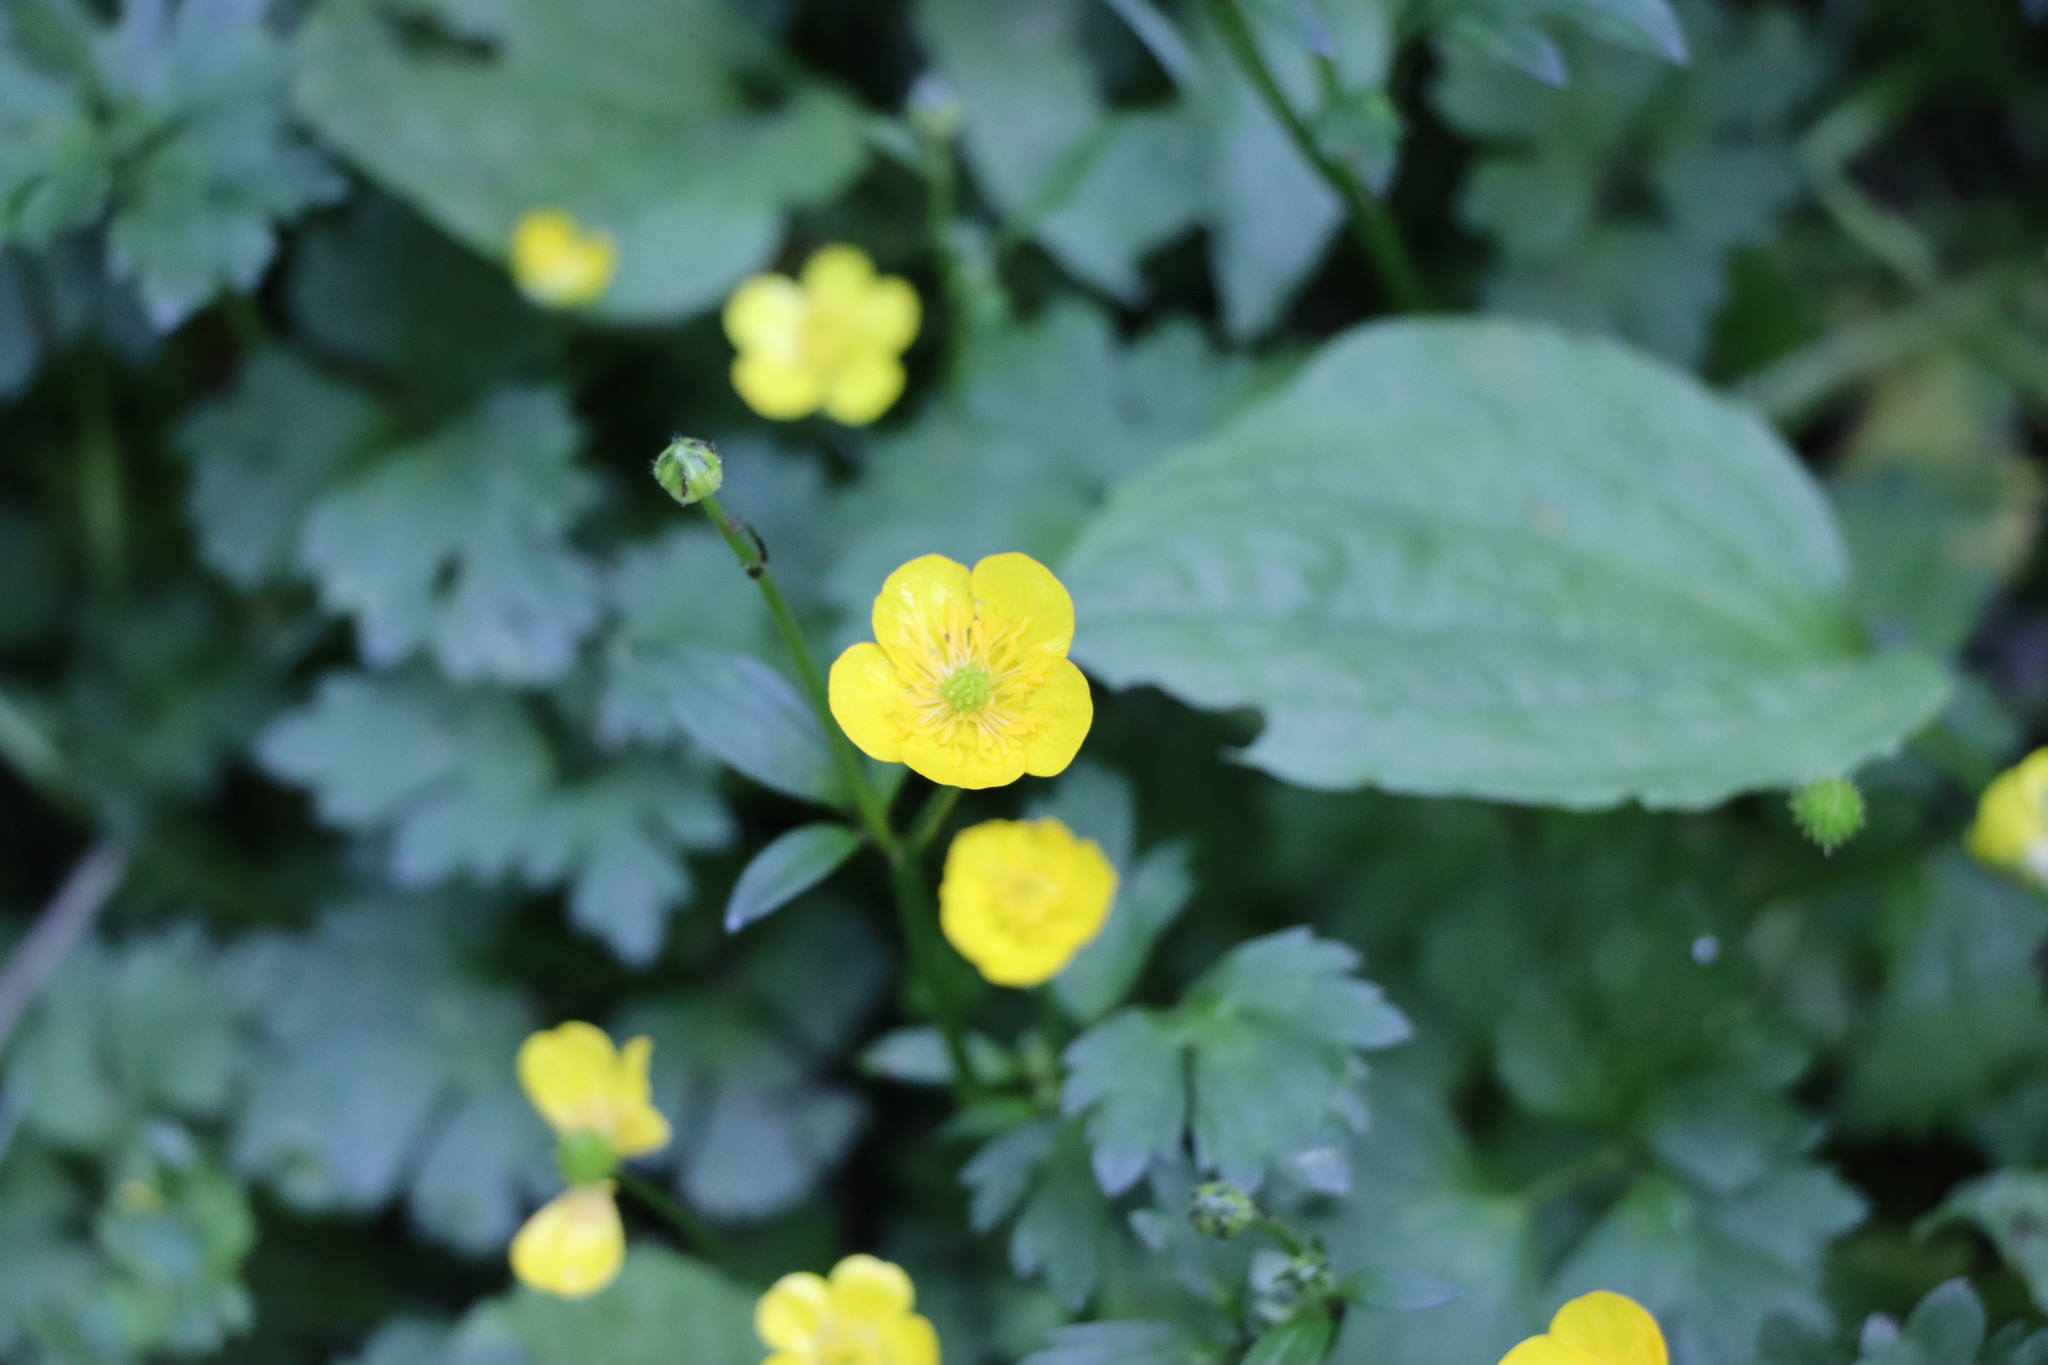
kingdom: Plantae
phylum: Tracheophyta
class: Magnoliopsida
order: Ranunculales
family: Ranunculaceae
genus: Ranunculus
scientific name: Ranunculus repens
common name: Creeping buttercup
